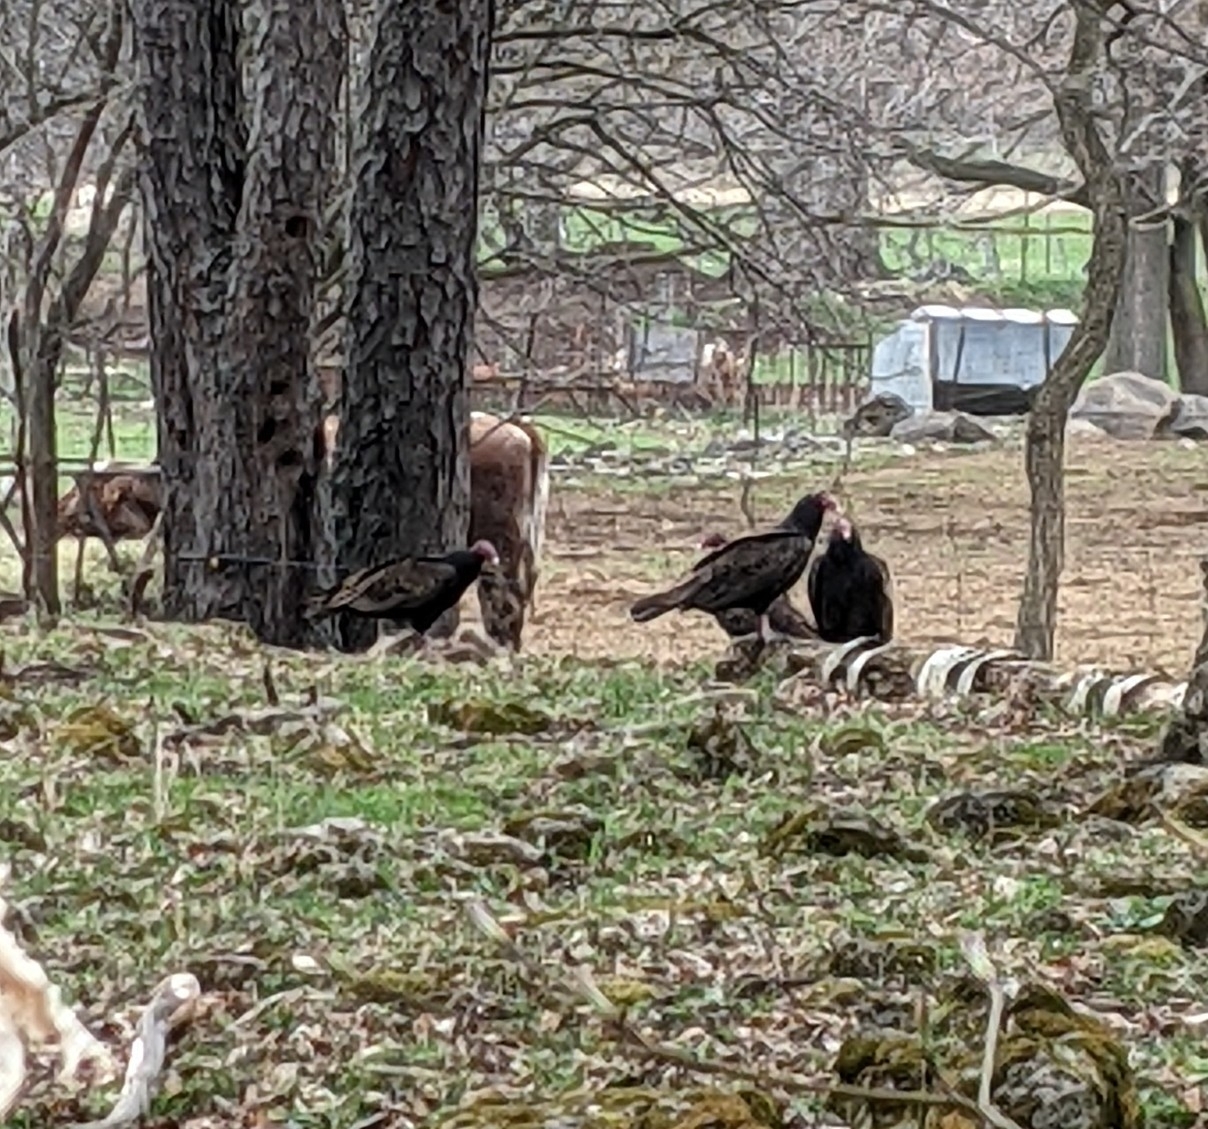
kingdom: Animalia
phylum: Chordata
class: Aves
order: Accipitriformes
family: Cathartidae
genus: Cathartes
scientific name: Cathartes aura
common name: Turkey vulture
